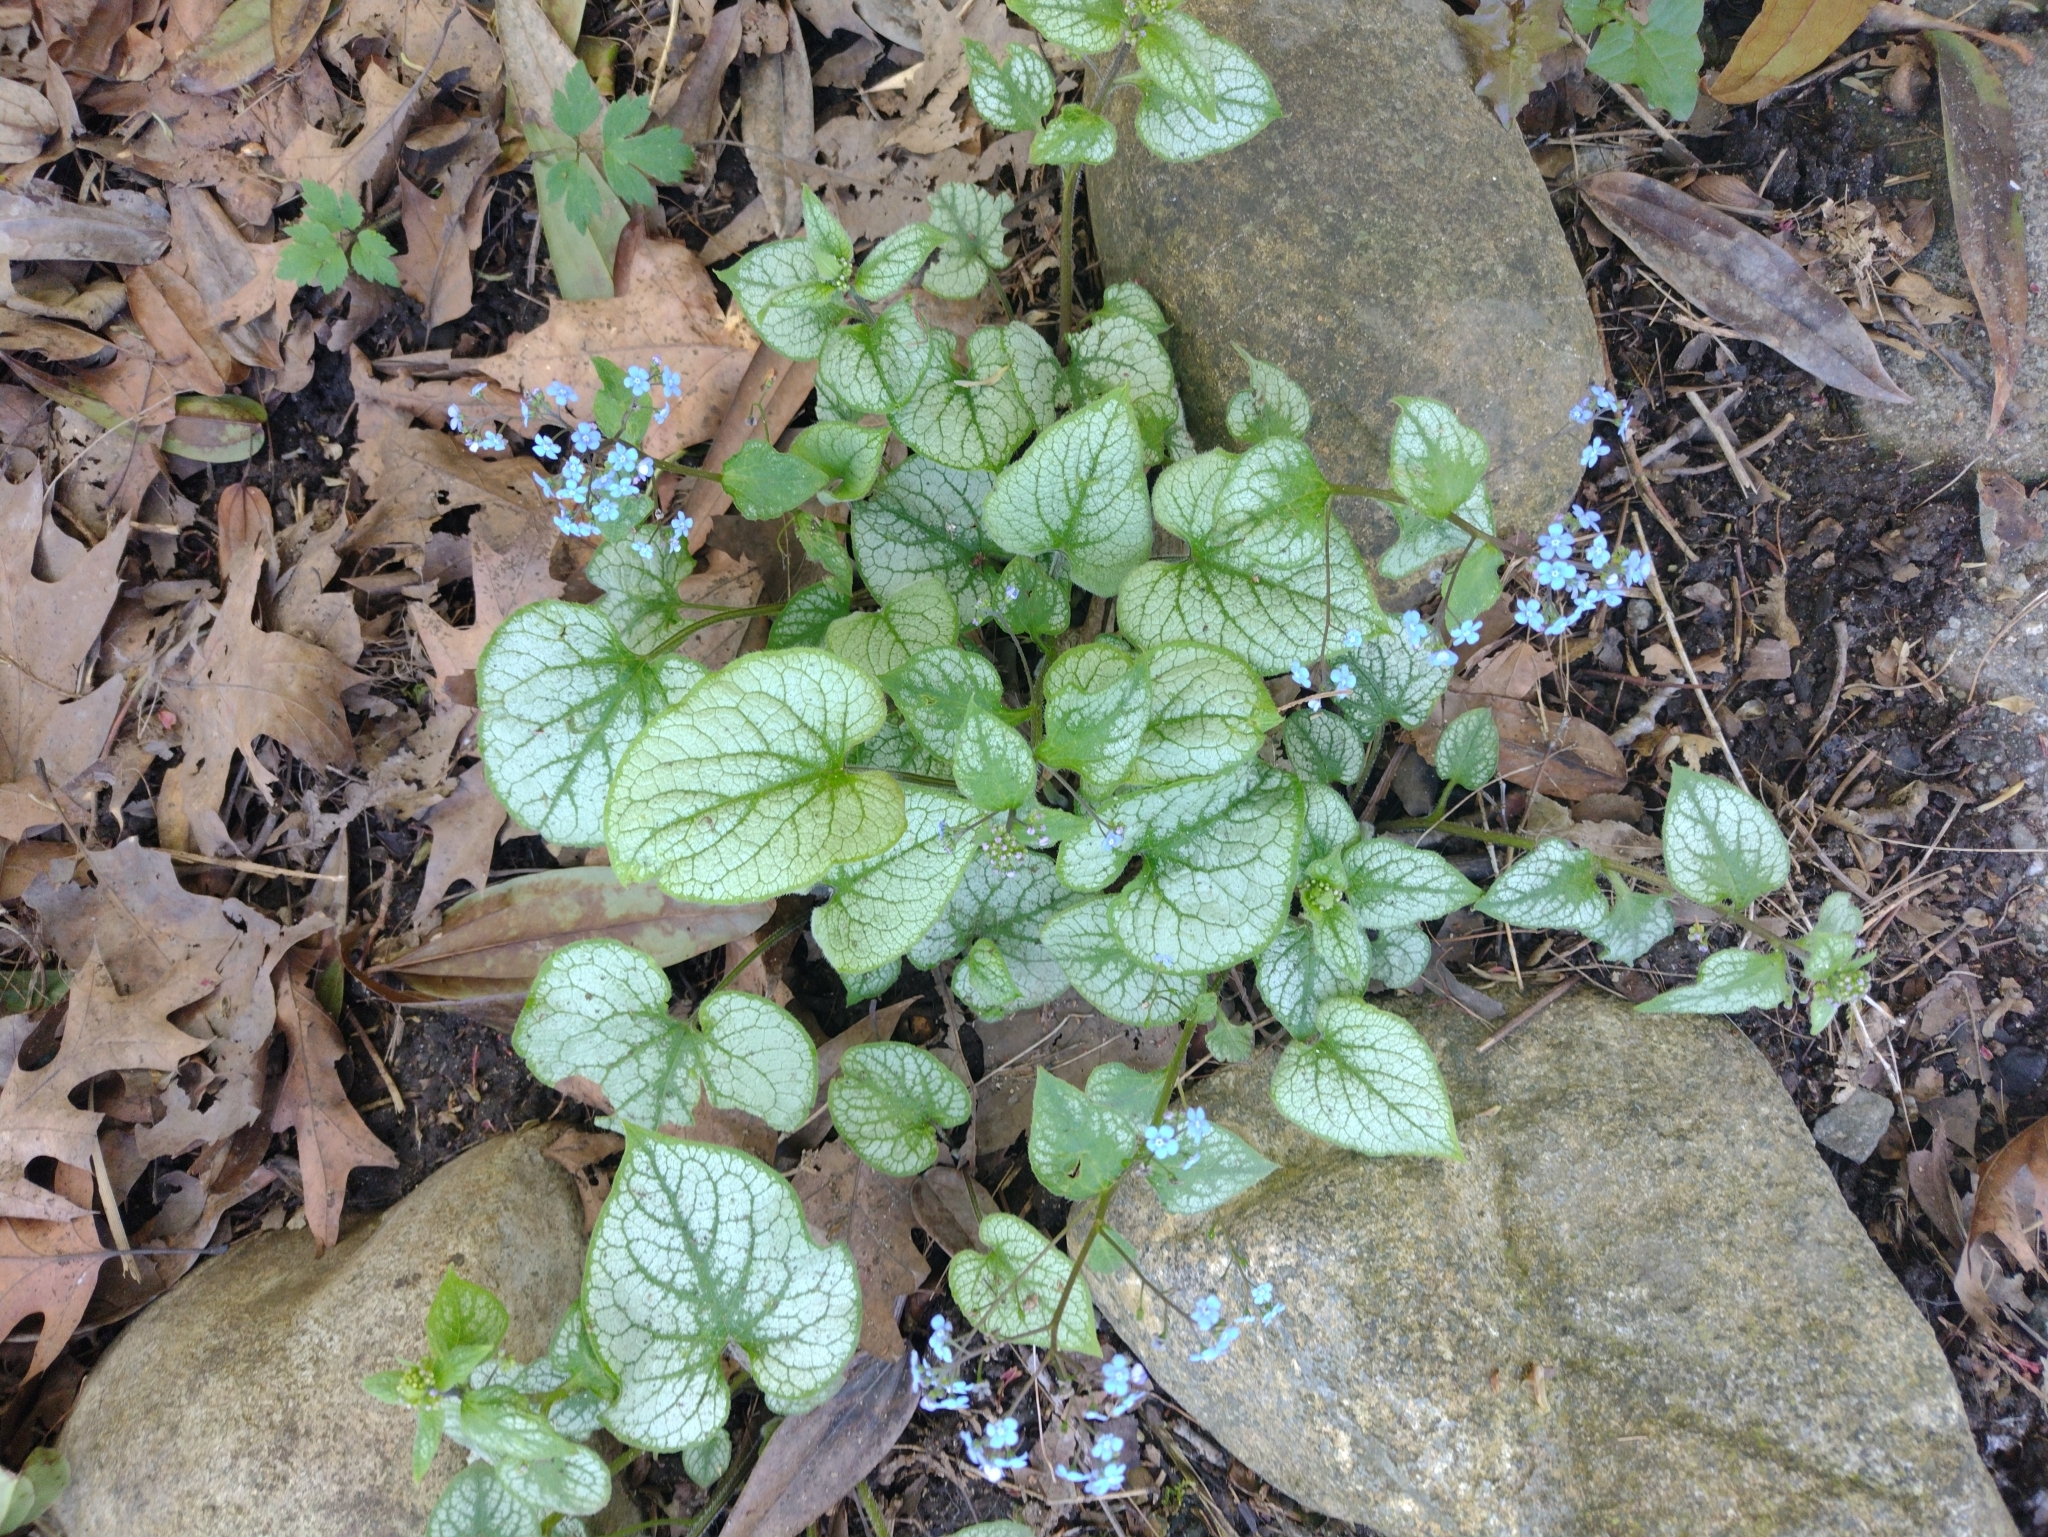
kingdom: Plantae
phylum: Tracheophyta
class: Magnoliopsida
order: Boraginales
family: Boraginaceae
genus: Brunnera
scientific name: Brunnera macrophylla
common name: Great forget-me-not
